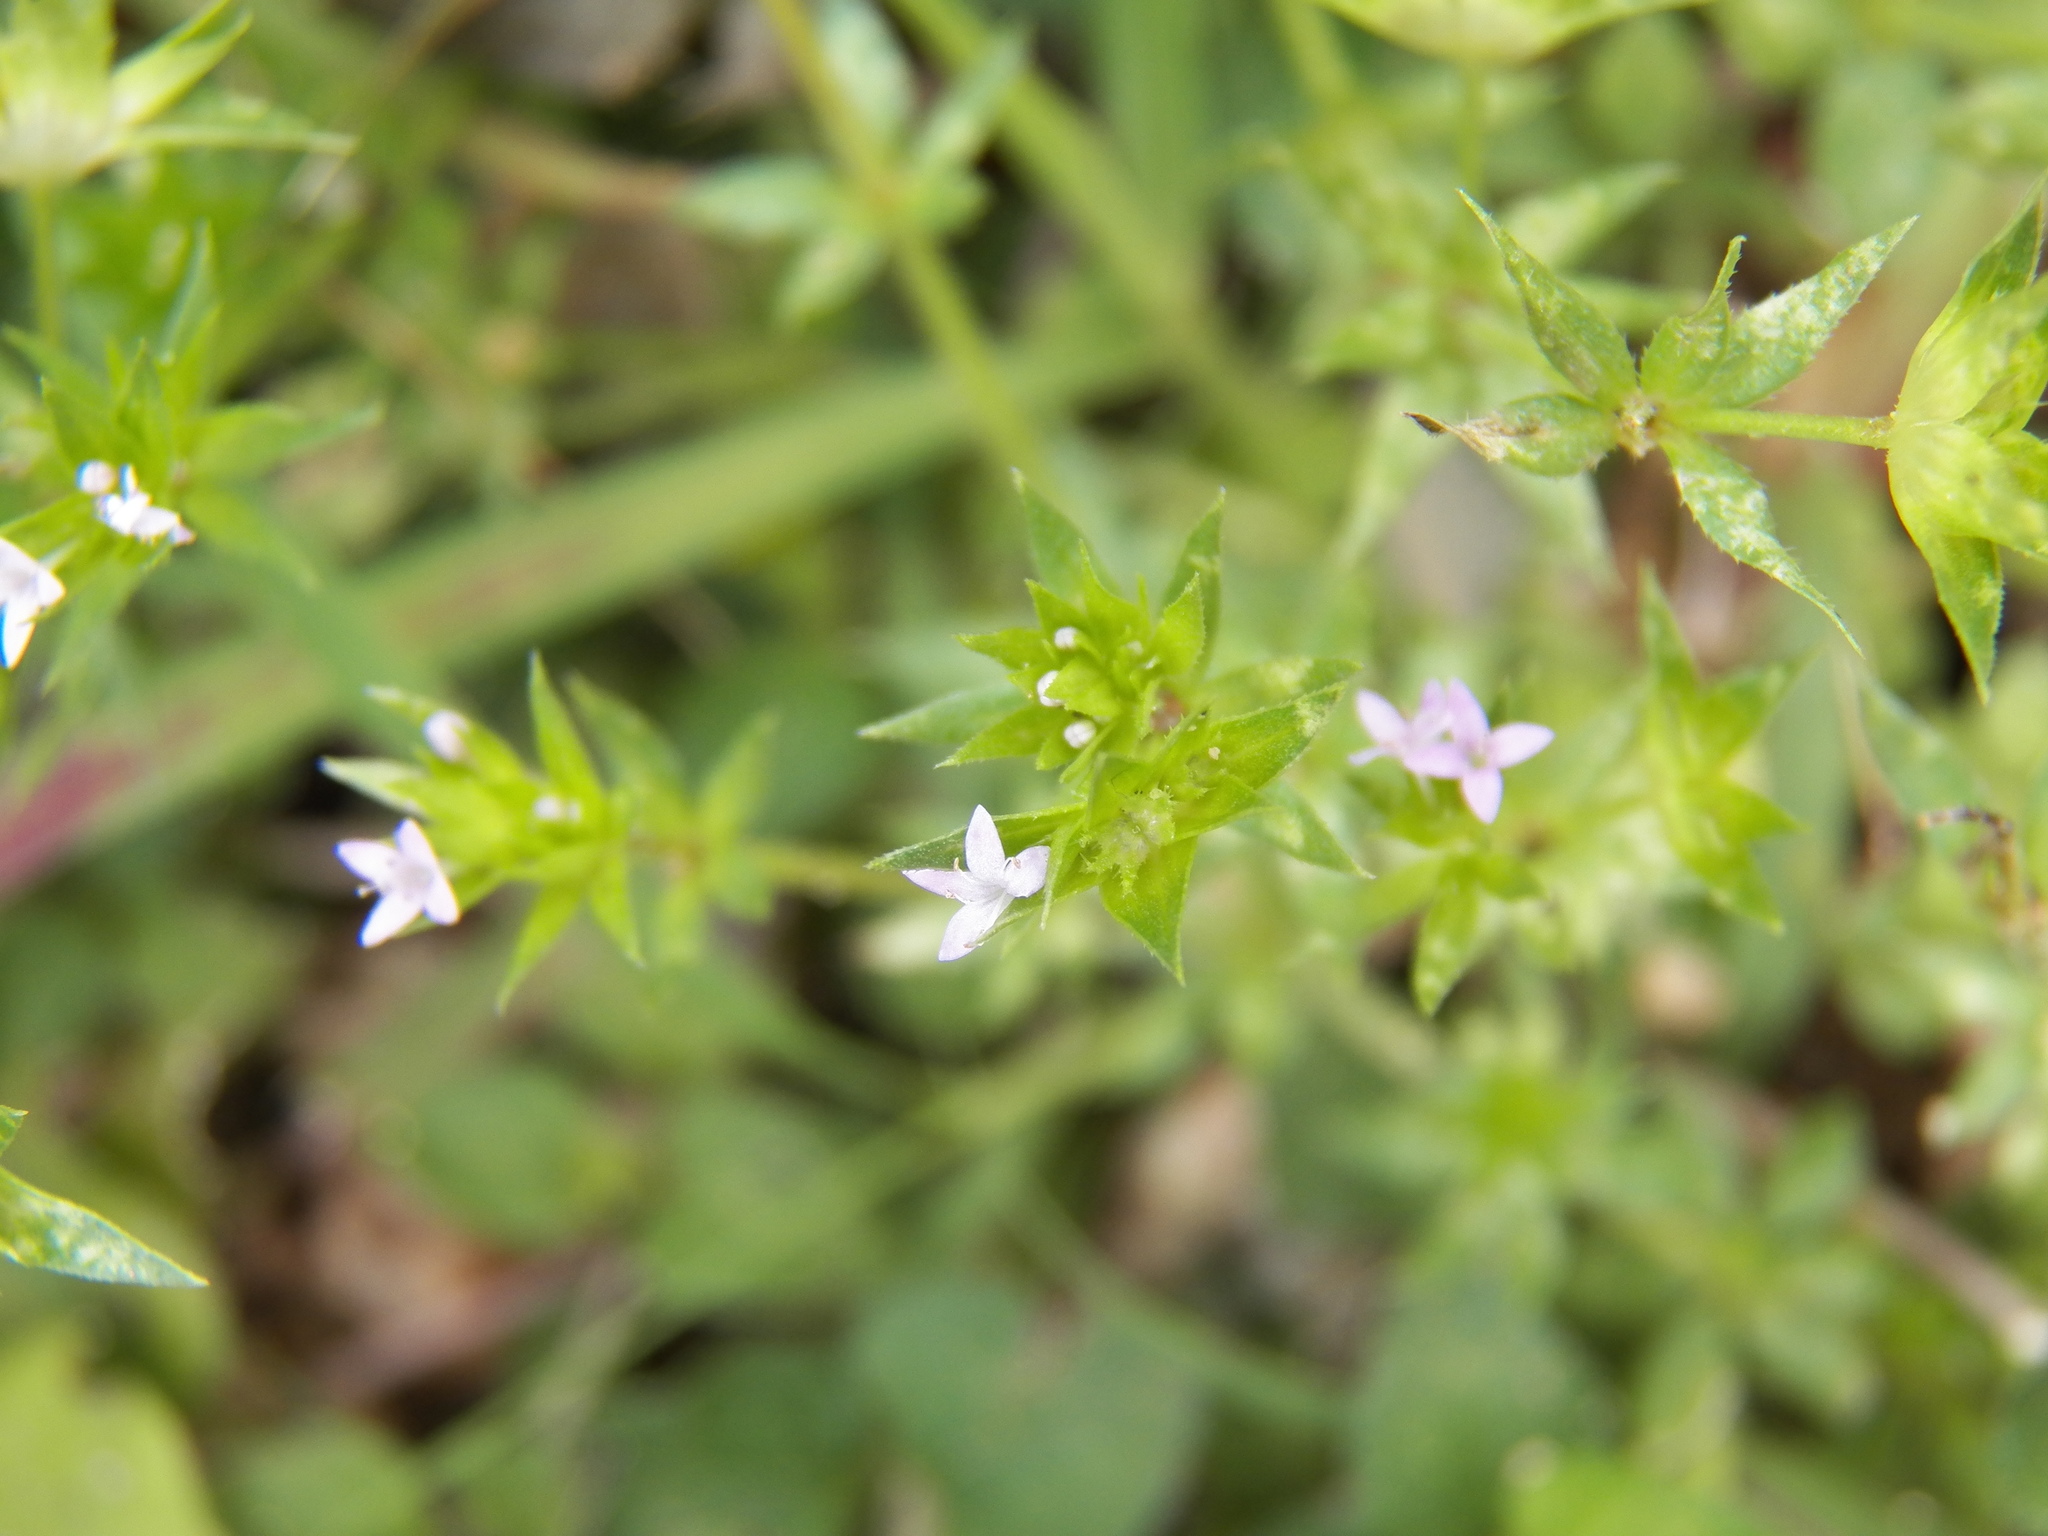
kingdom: Plantae
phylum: Tracheophyta
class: Magnoliopsida
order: Gentianales
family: Rubiaceae
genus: Sherardia
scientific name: Sherardia arvensis
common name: Field madder
